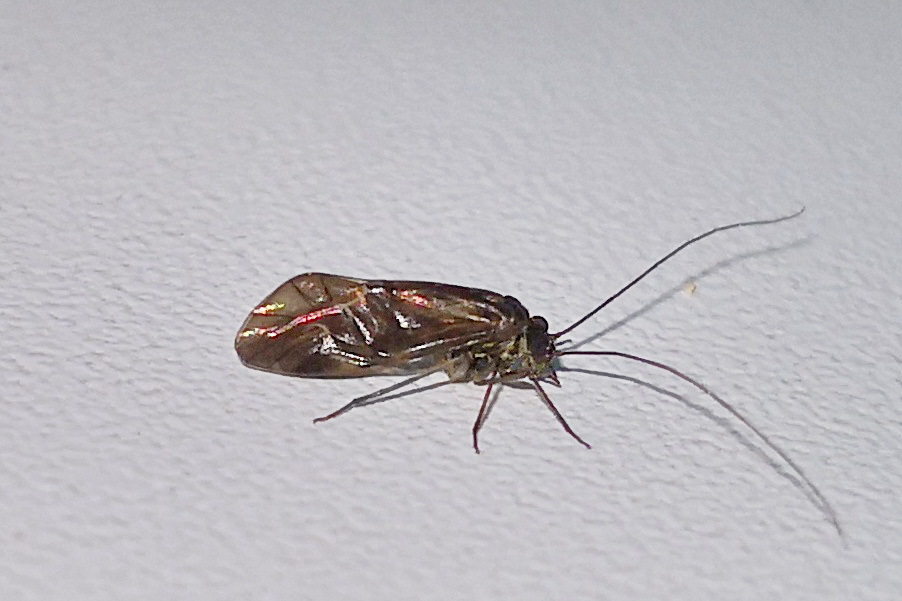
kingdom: Animalia
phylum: Arthropoda
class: Insecta
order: Psocodea
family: Psocidae
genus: Metylophorus
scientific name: Metylophorus nebulosus
